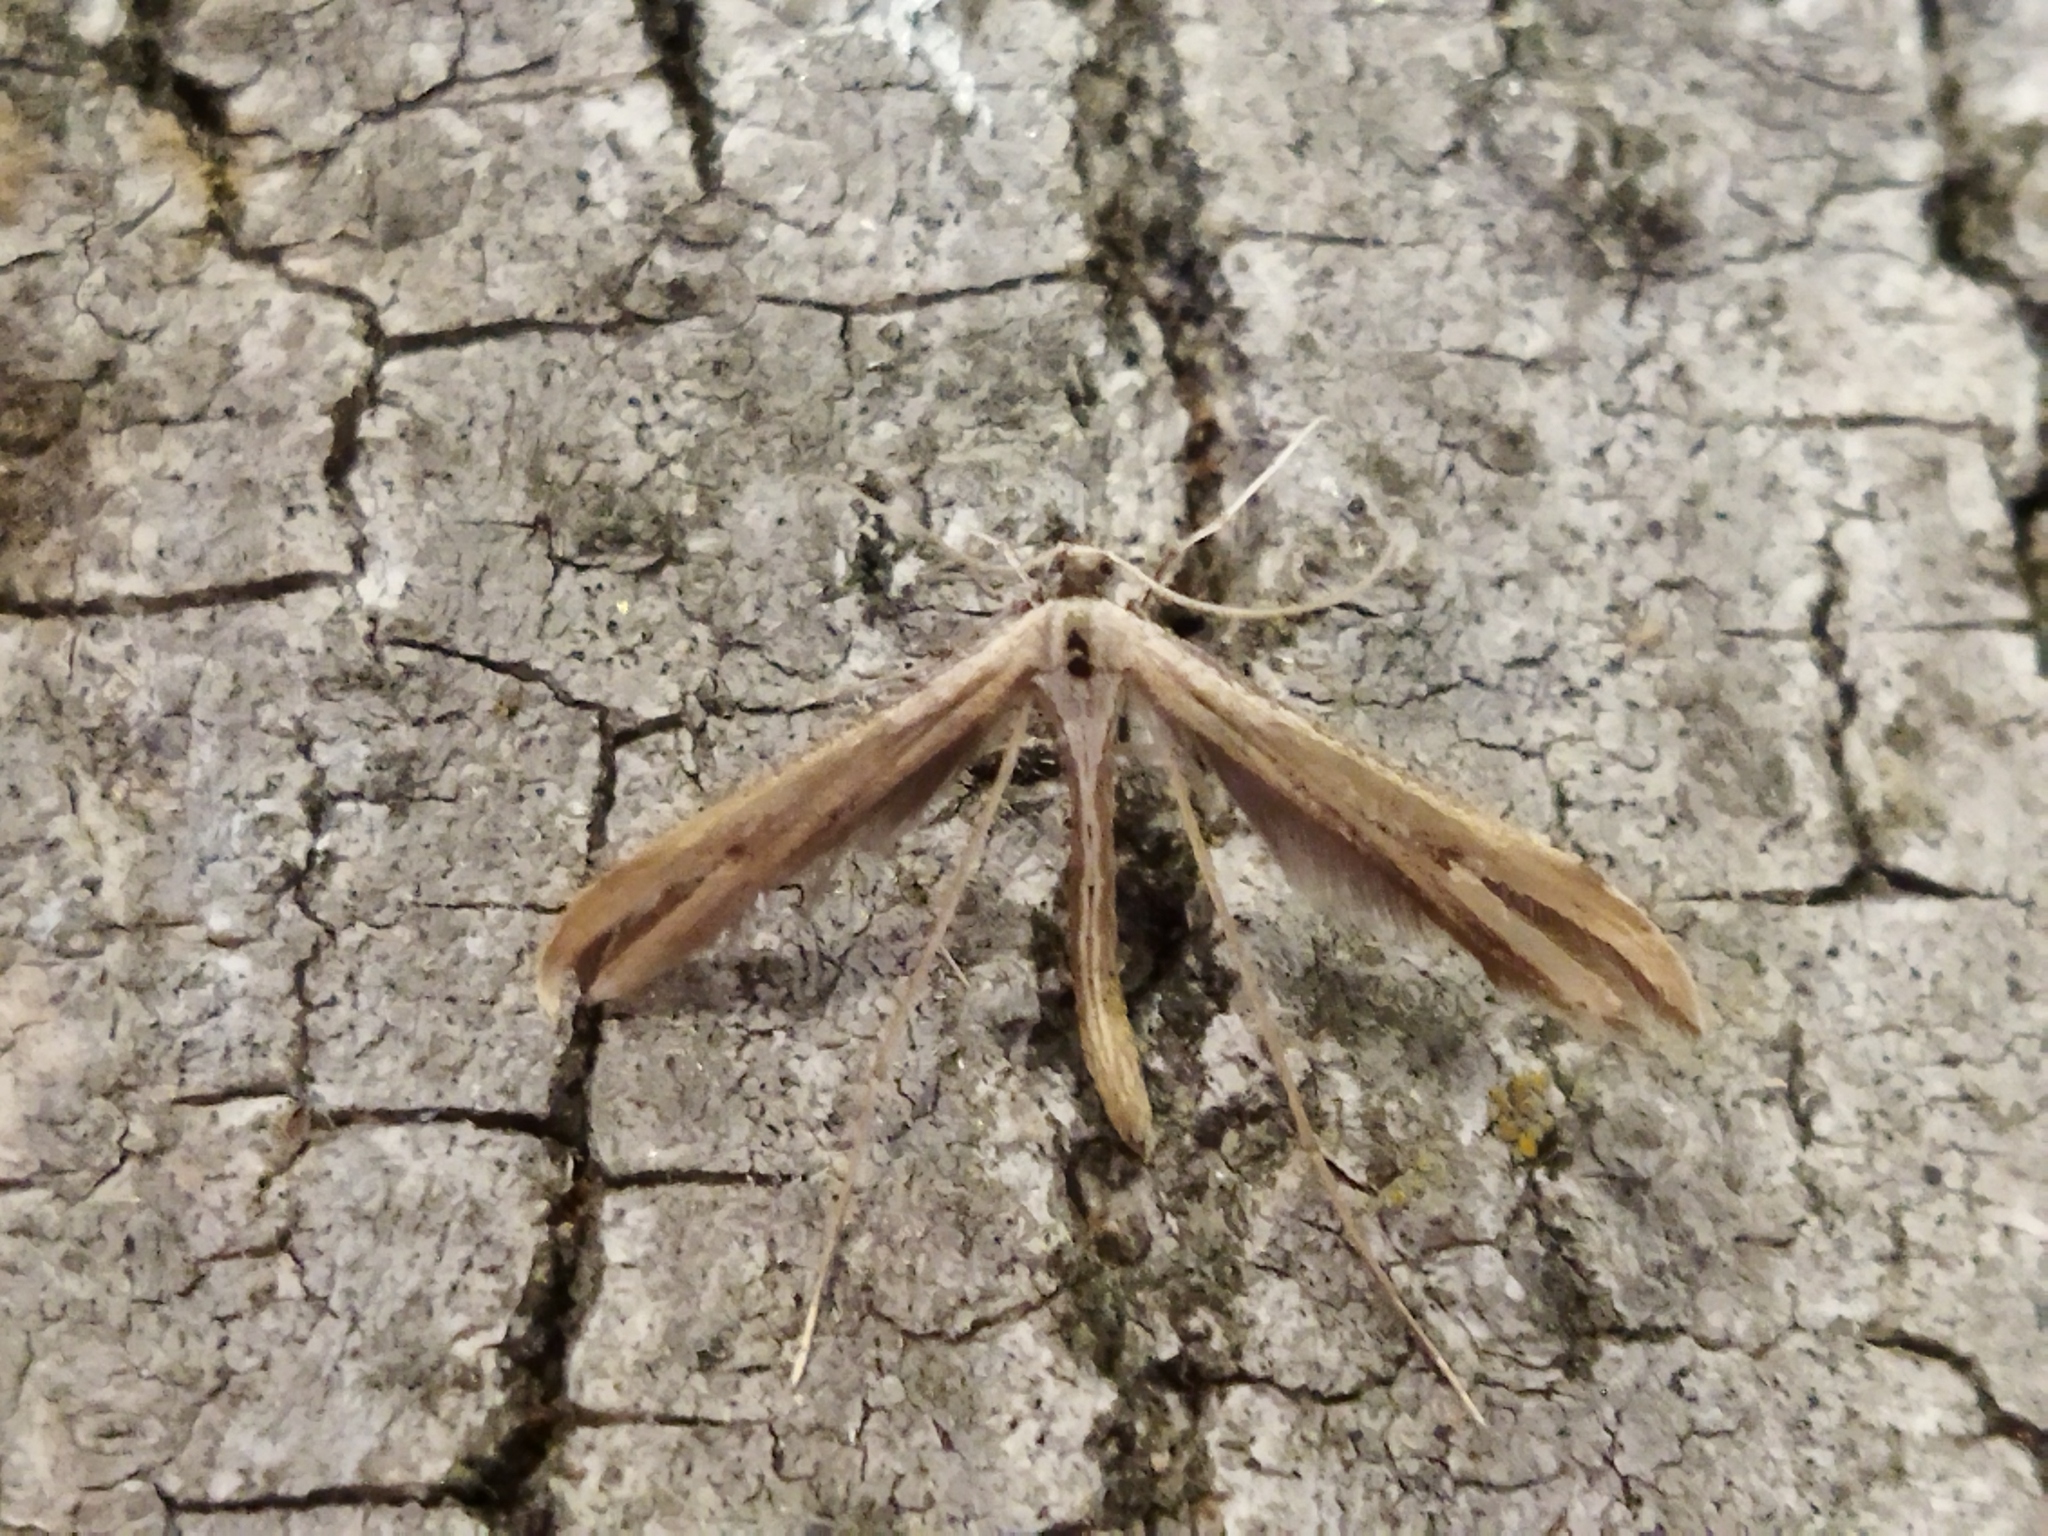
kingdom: Animalia
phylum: Arthropoda
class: Insecta
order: Lepidoptera
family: Pterophoridae
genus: Emmelina
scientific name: Emmelina monodactyla
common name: Common plume
